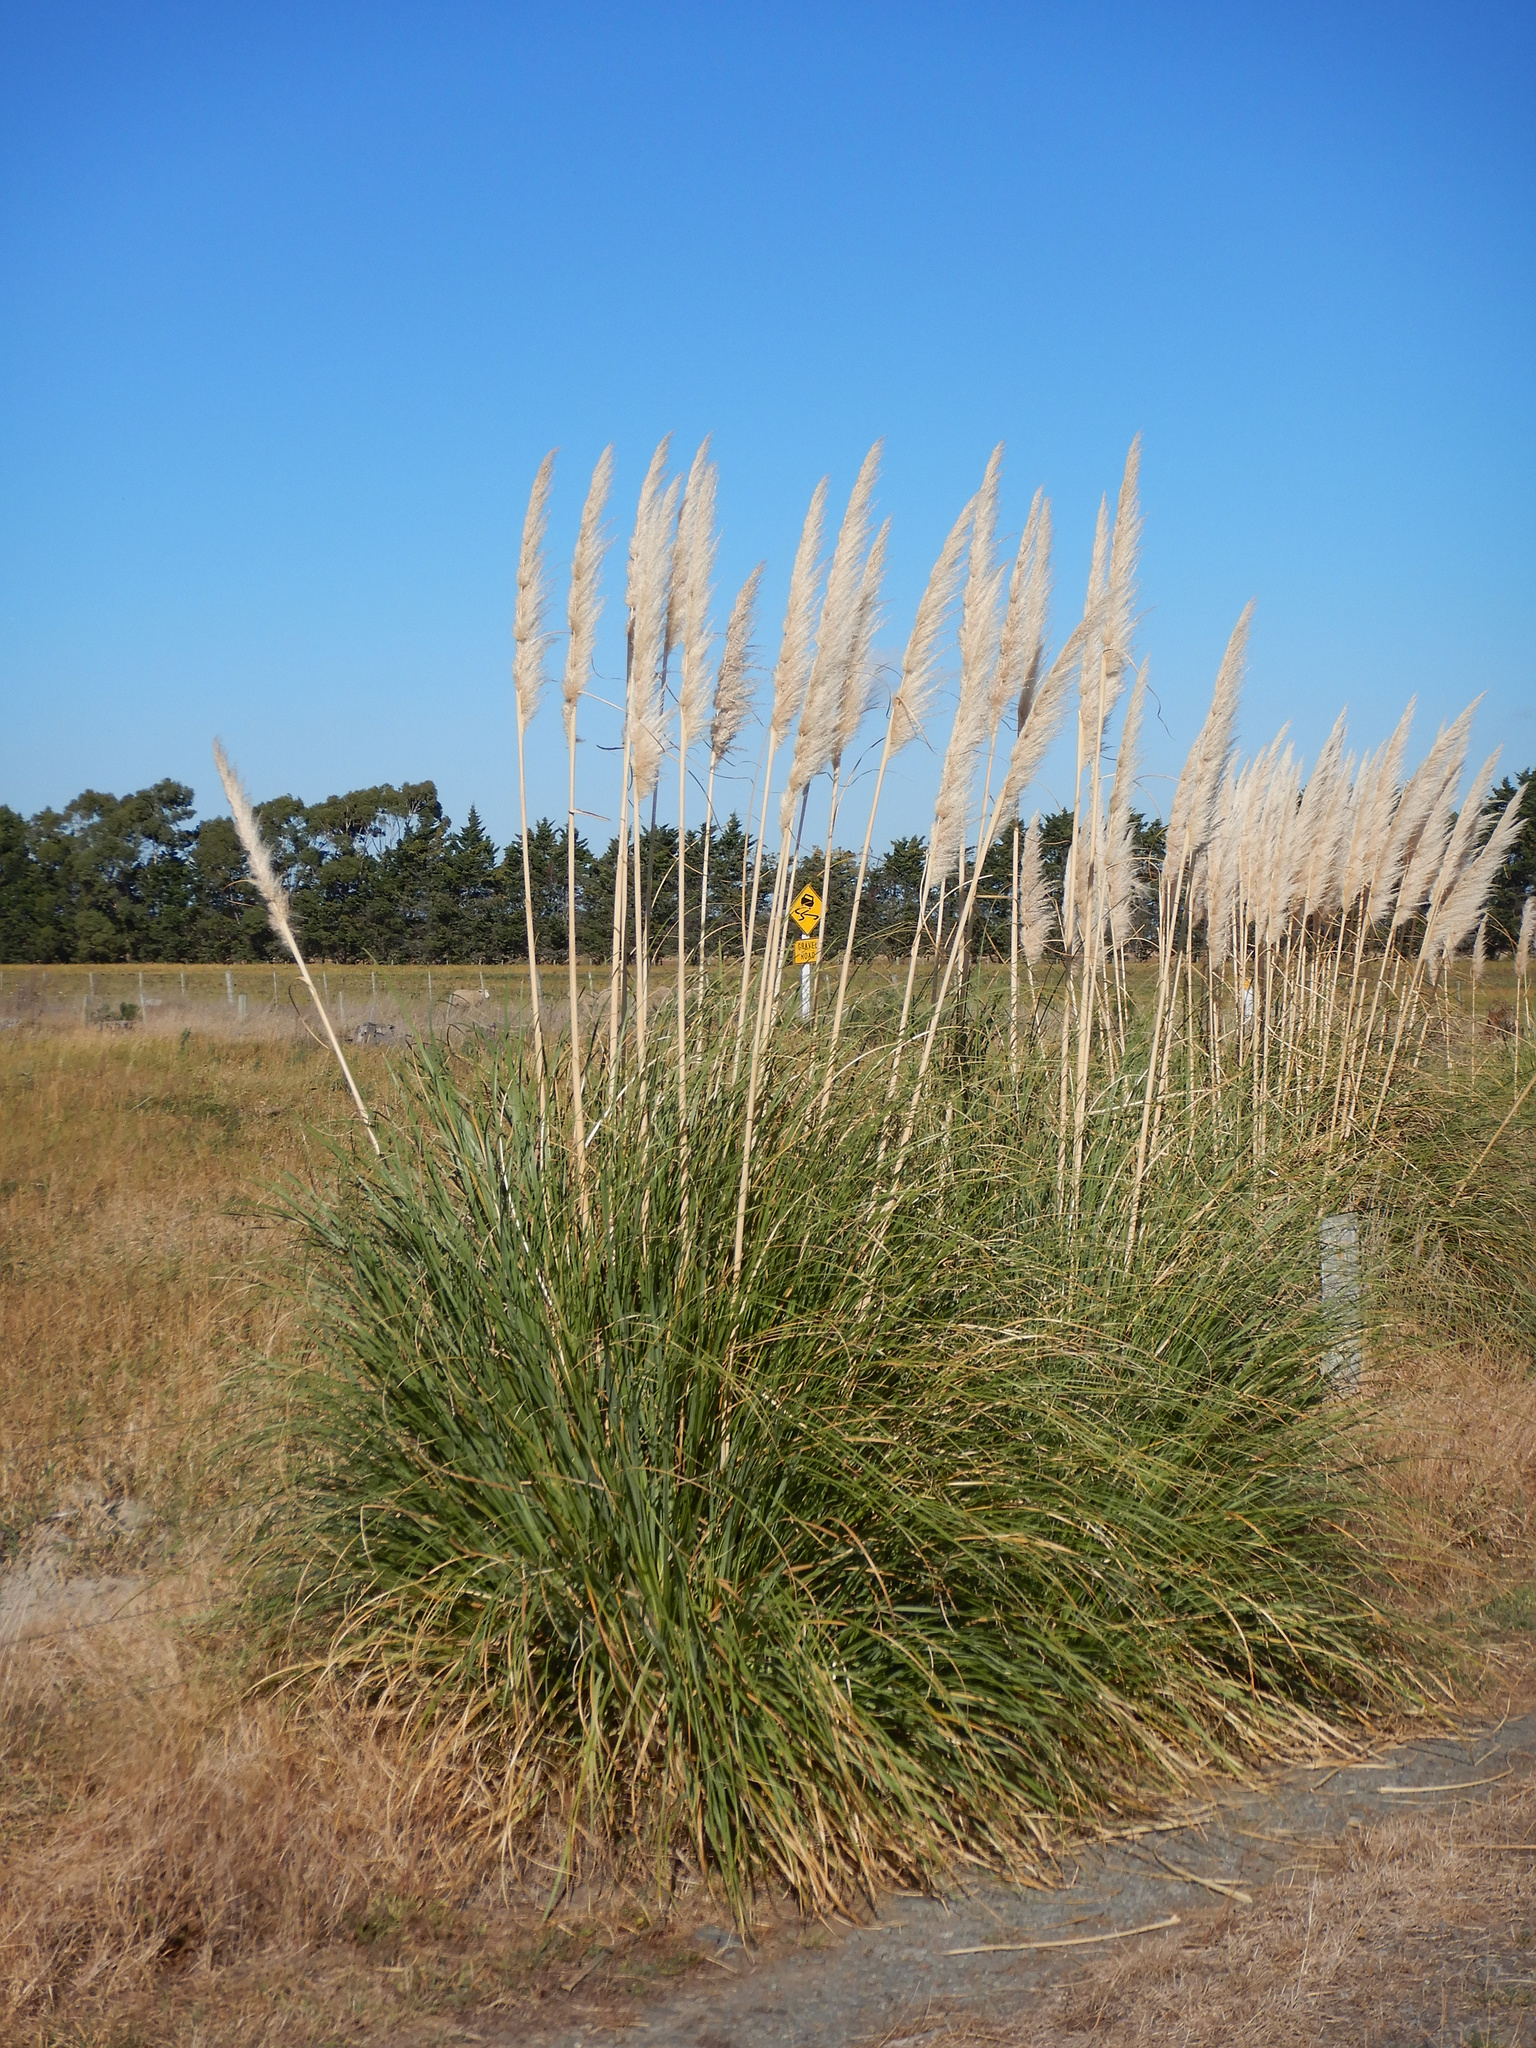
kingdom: Plantae
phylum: Tracheophyta
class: Liliopsida
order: Poales
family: Poaceae
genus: Cortaderia
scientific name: Cortaderia selloana
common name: Uruguayan pampas grass
